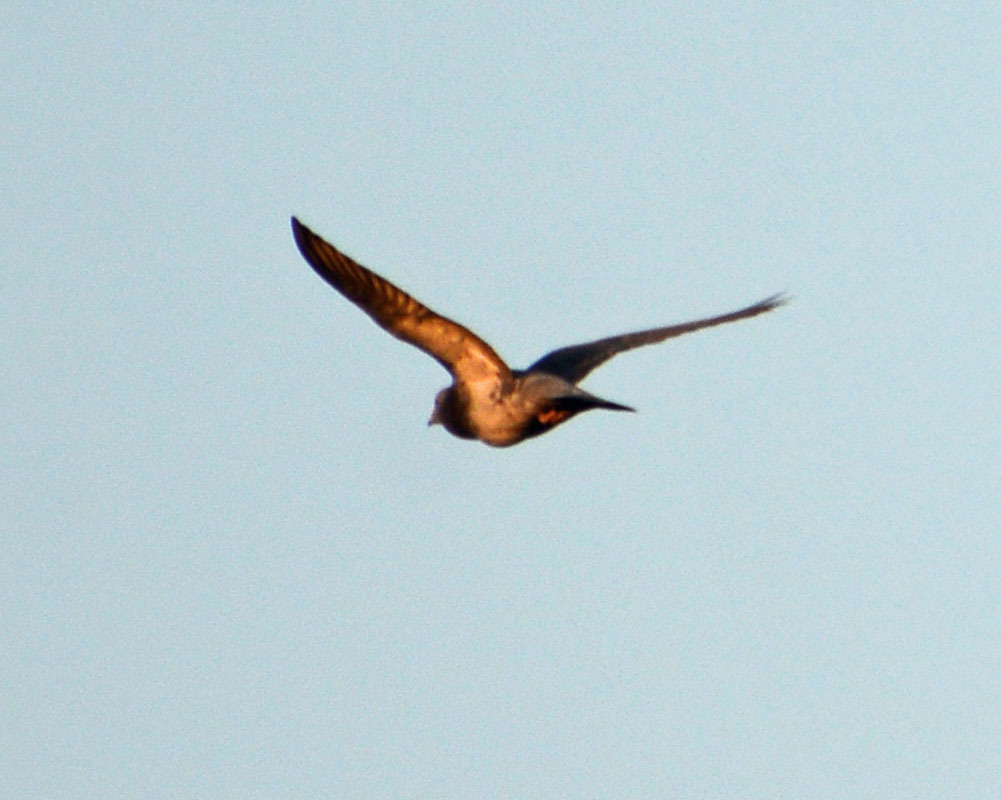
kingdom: Animalia
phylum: Chordata
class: Aves
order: Columbiformes
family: Columbidae
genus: Columba
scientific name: Columba livia
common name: Rock pigeon
